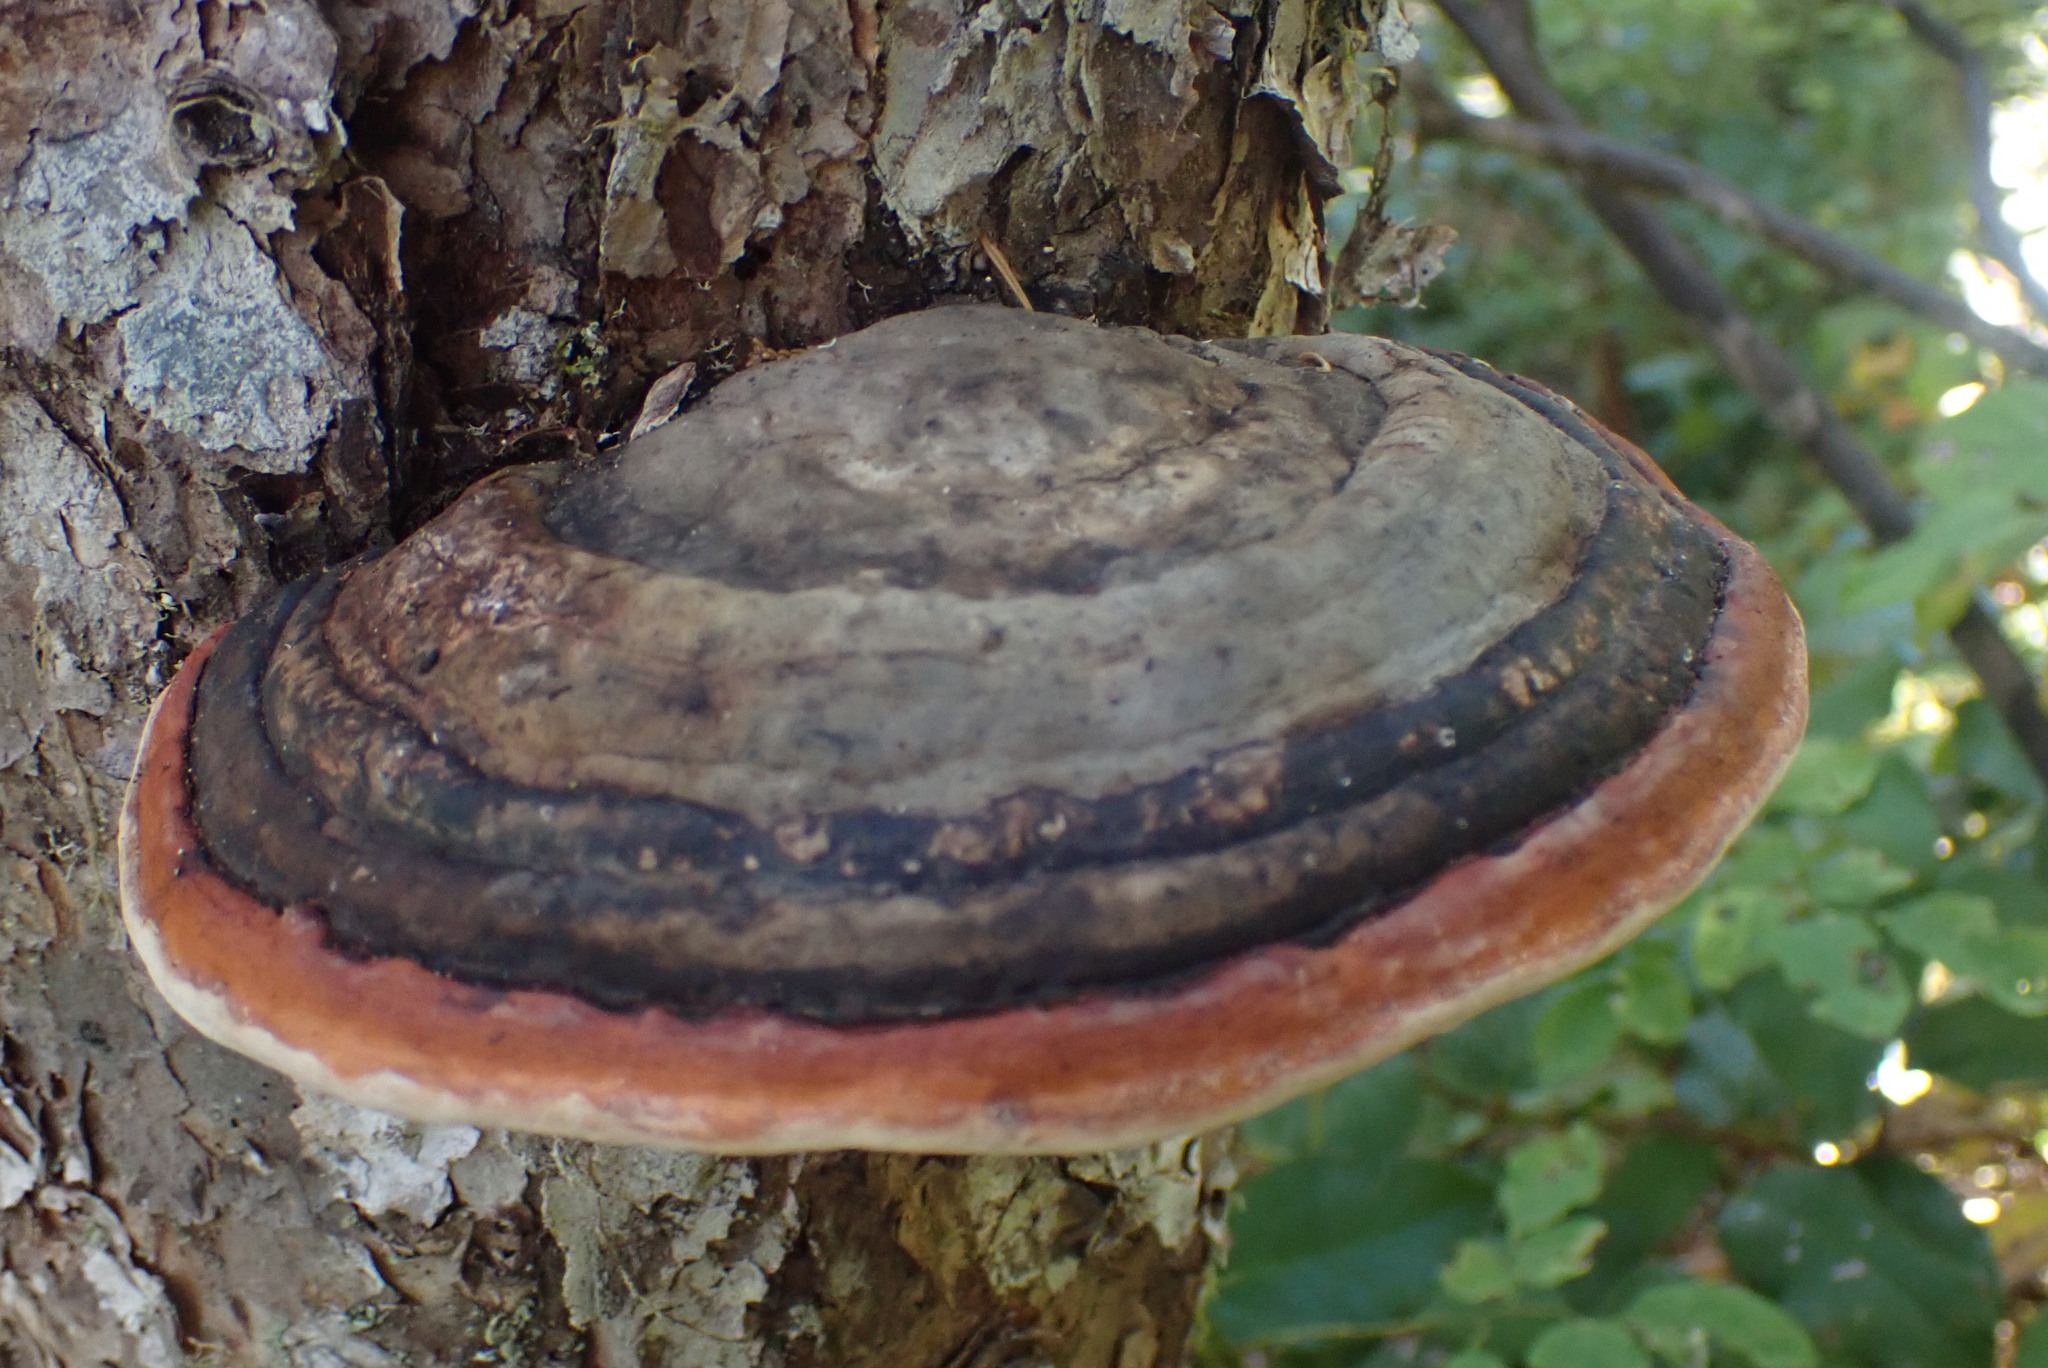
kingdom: Fungi
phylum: Basidiomycota
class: Agaricomycetes
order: Polyporales
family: Fomitopsidaceae
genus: Fomitopsis
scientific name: Fomitopsis mounceae
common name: Northern red belt
